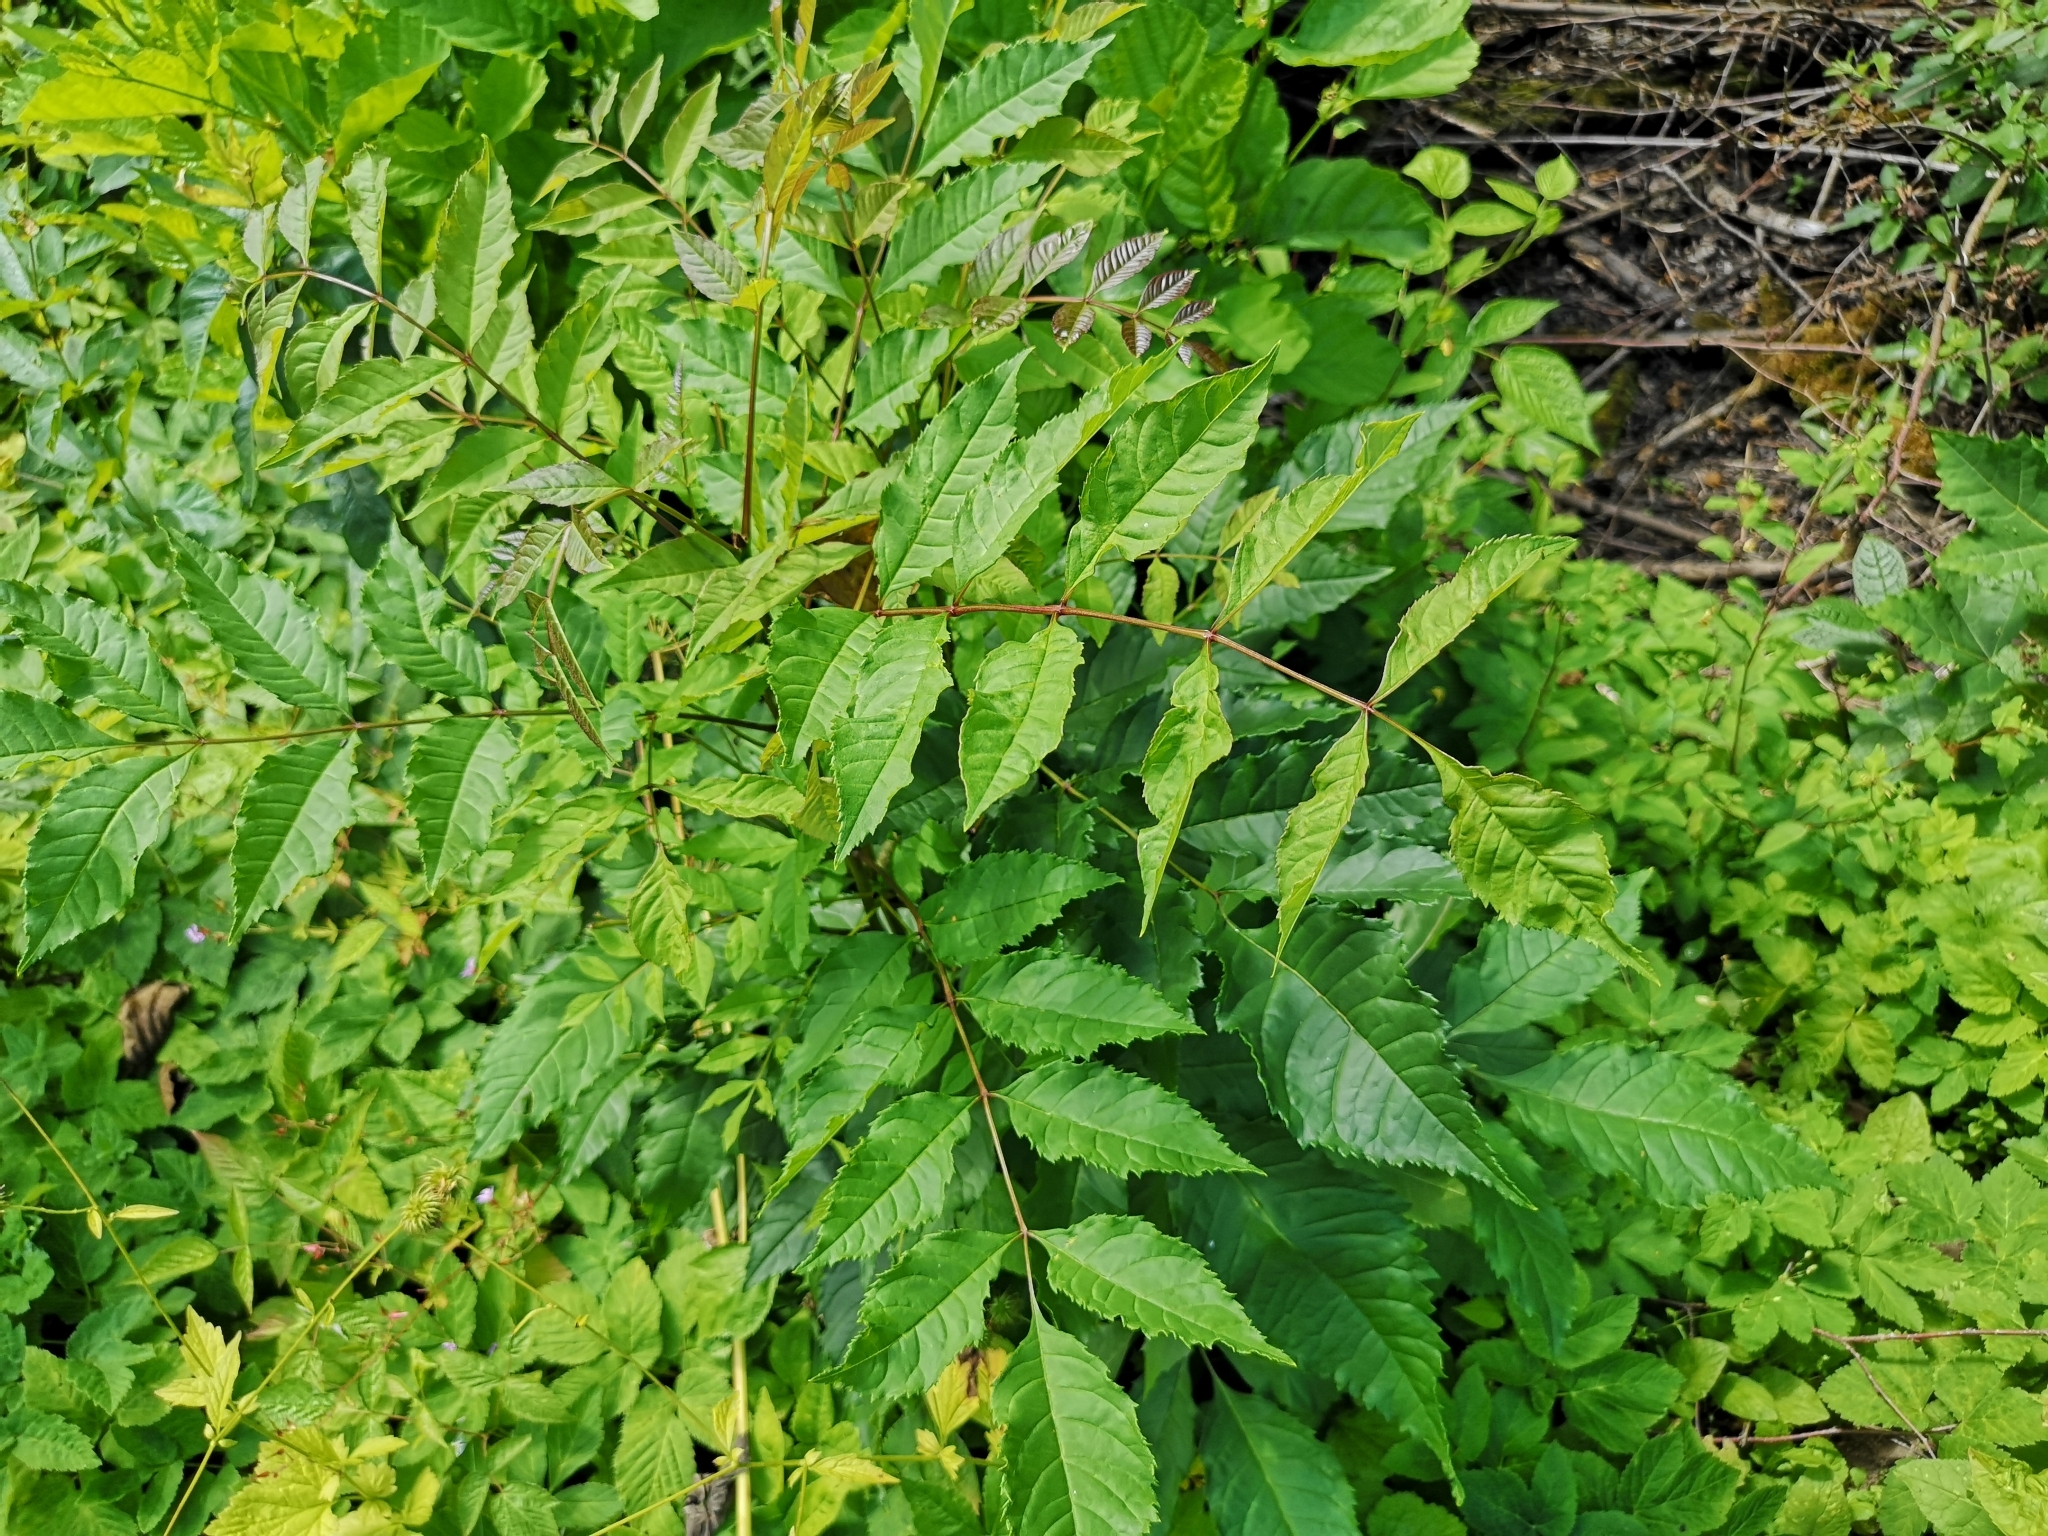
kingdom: Plantae
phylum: Tracheophyta
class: Magnoliopsida
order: Lamiales
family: Oleaceae
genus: Fraxinus
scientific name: Fraxinus excelsior
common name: European ash
